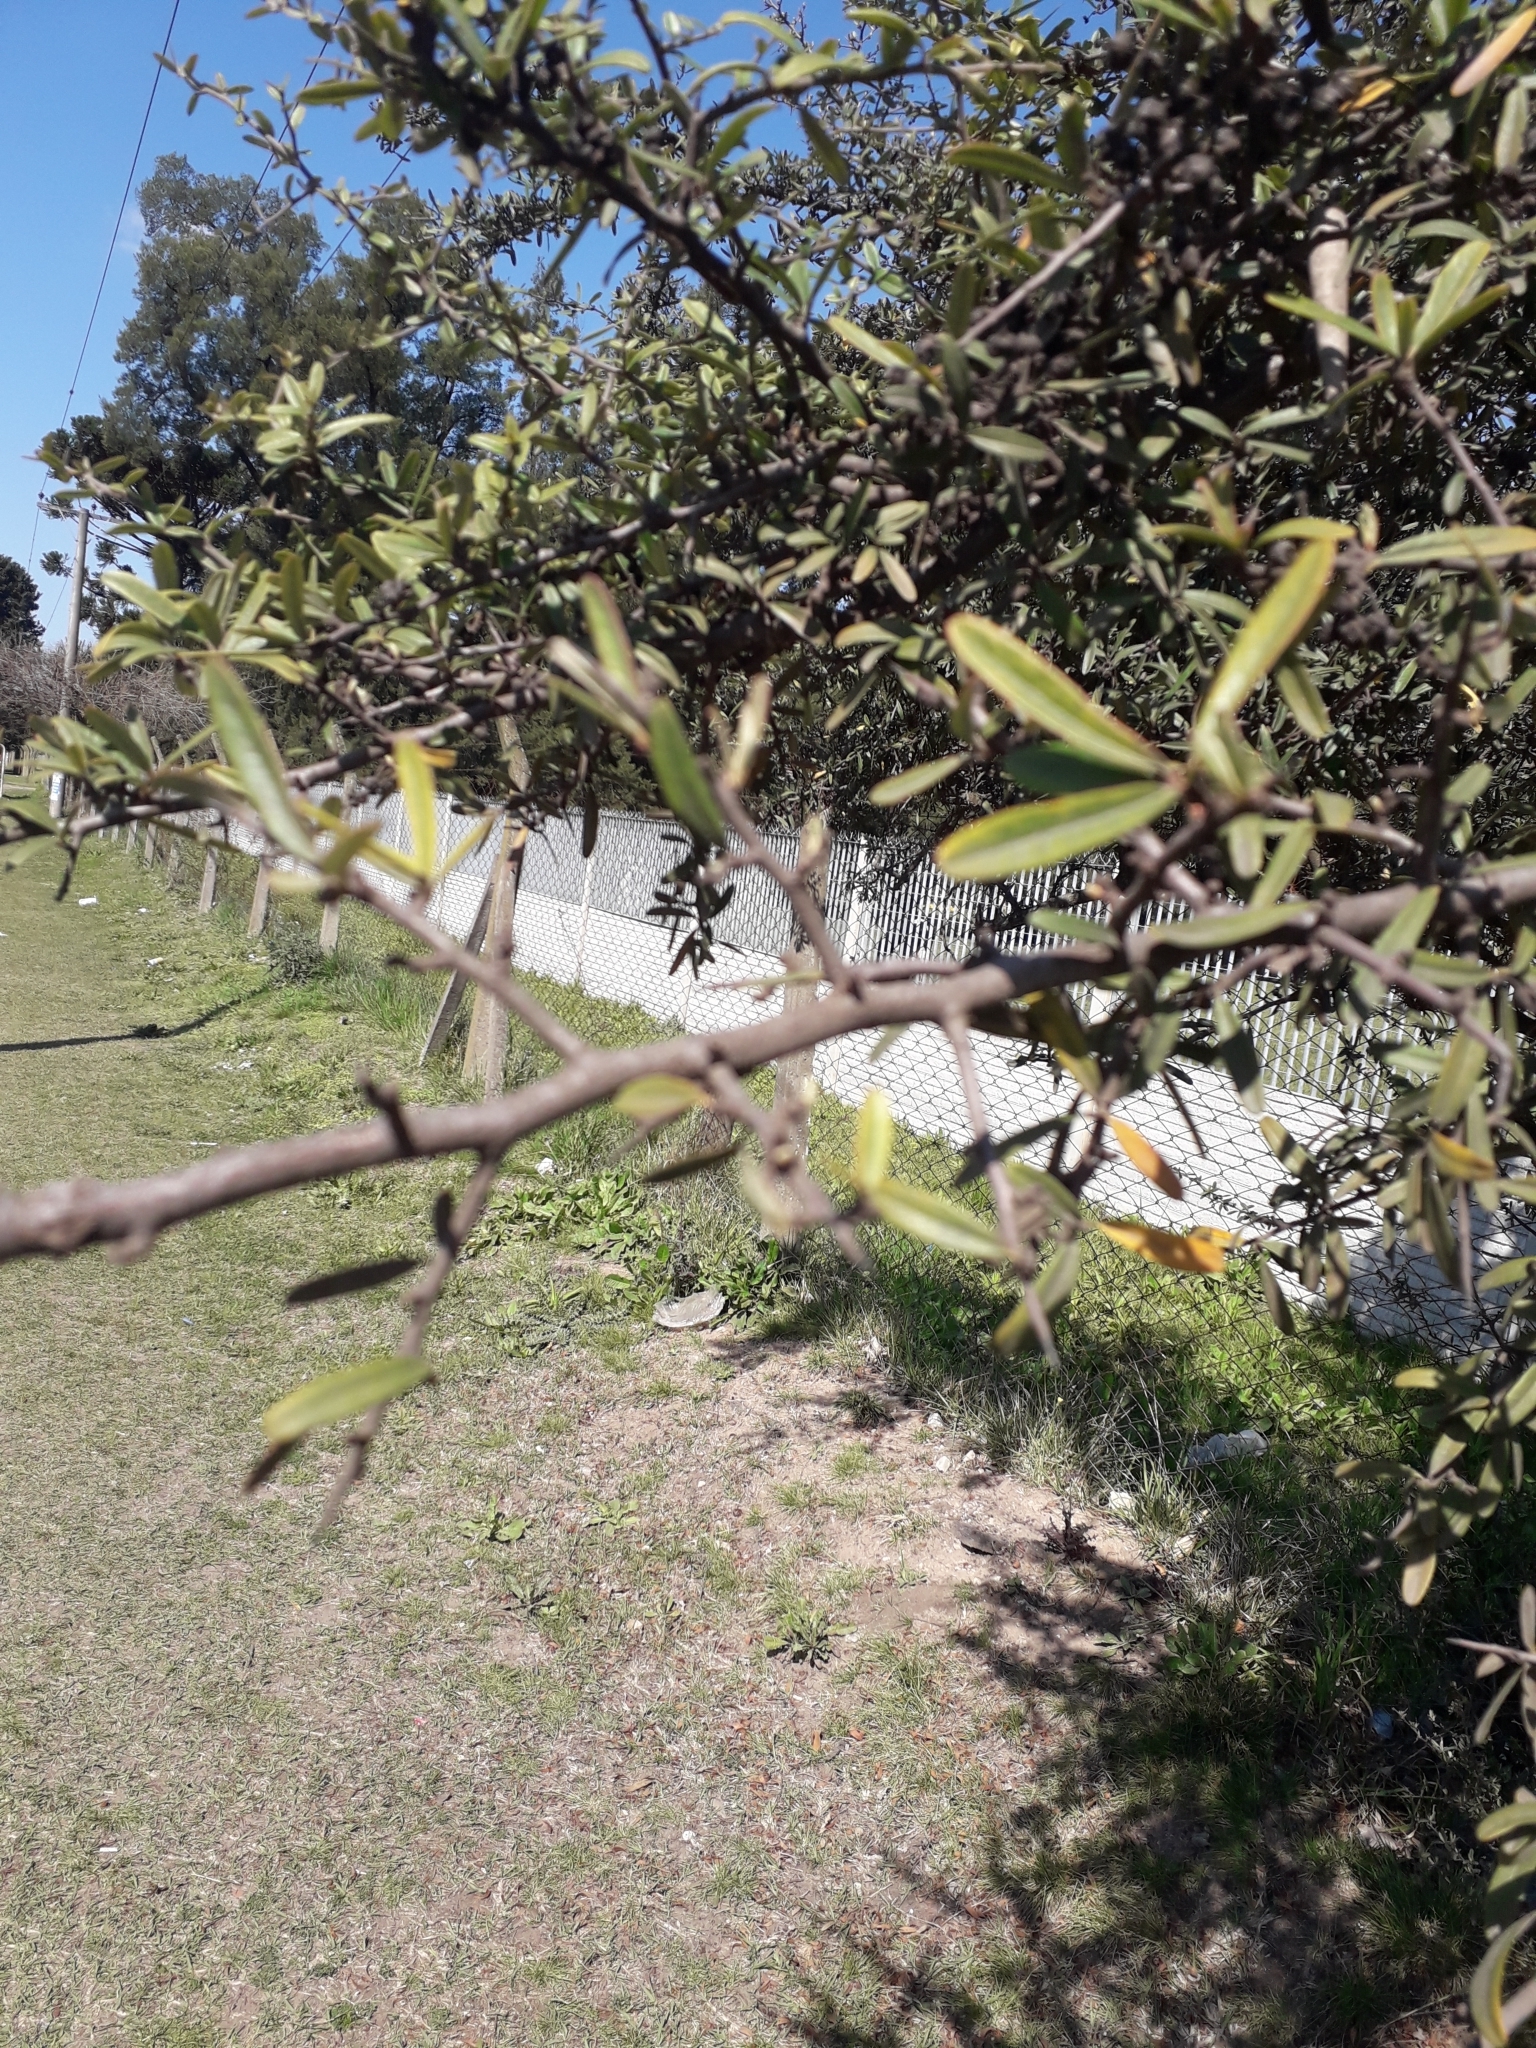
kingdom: Plantae
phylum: Tracheophyta
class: Magnoliopsida
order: Rosales
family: Rosaceae
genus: Pyracantha
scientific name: Pyracantha coccinea
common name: Firethorn
